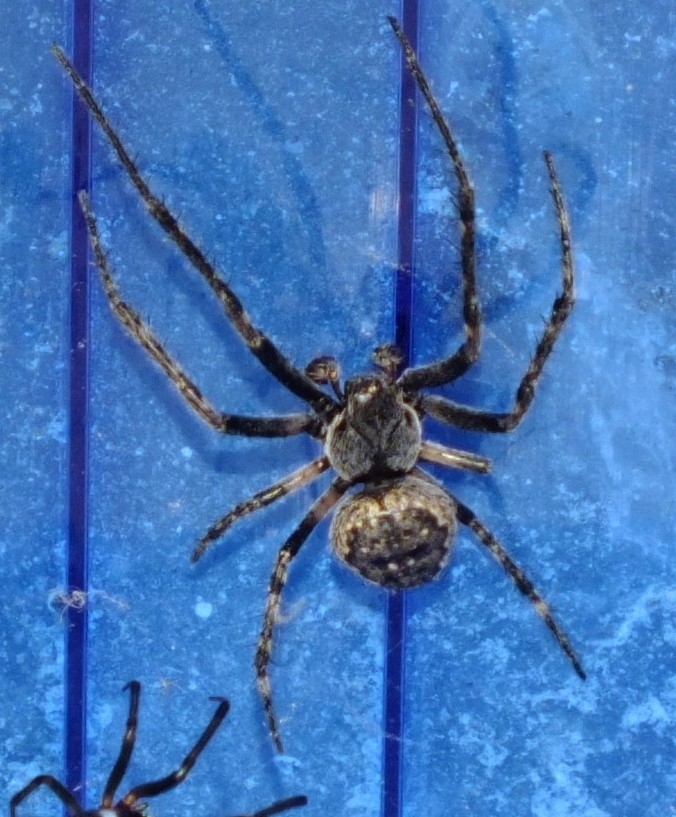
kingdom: Animalia
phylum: Arthropoda
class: Arachnida
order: Araneae
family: Araneidae
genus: Nuctenea
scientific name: Nuctenea umbratica
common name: Toad spider
